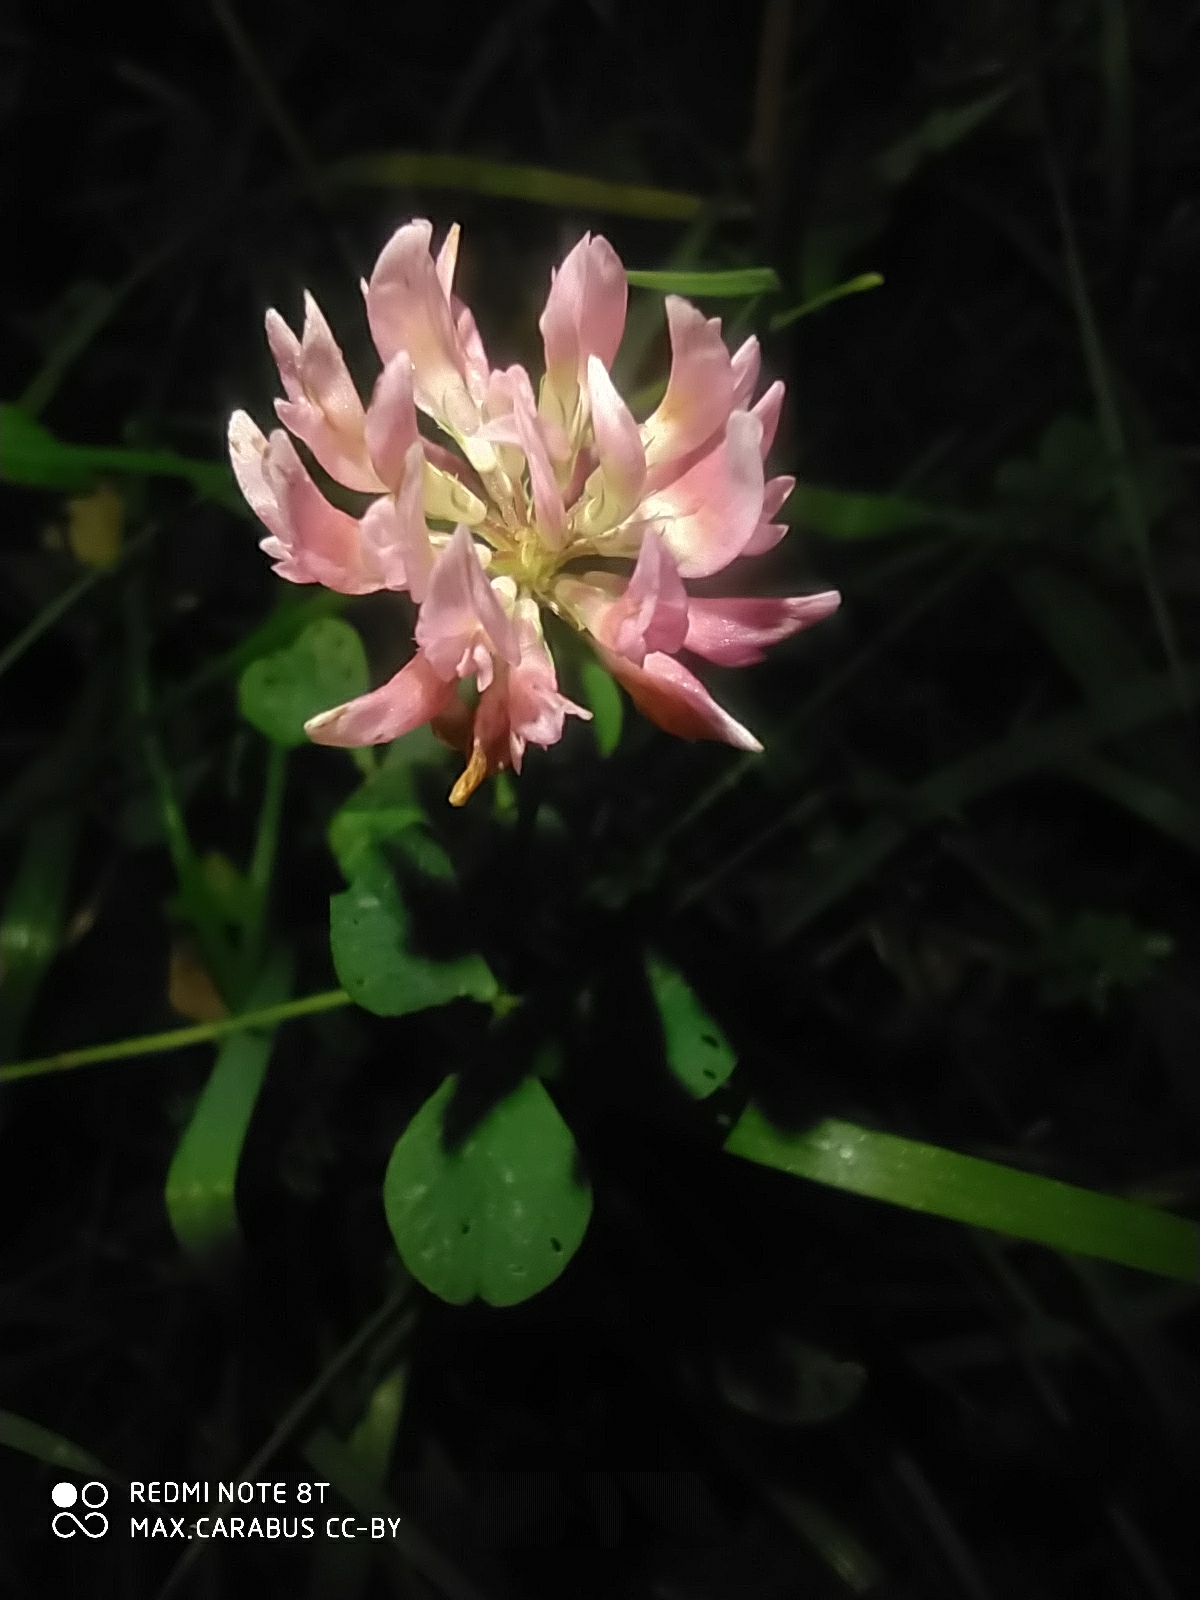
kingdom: Plantae
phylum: Tracheophyta
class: Magnoliopsida
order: Fabales
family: Fabaceae
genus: Trifolium
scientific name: Trifolium hybridum
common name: Alsike clover
